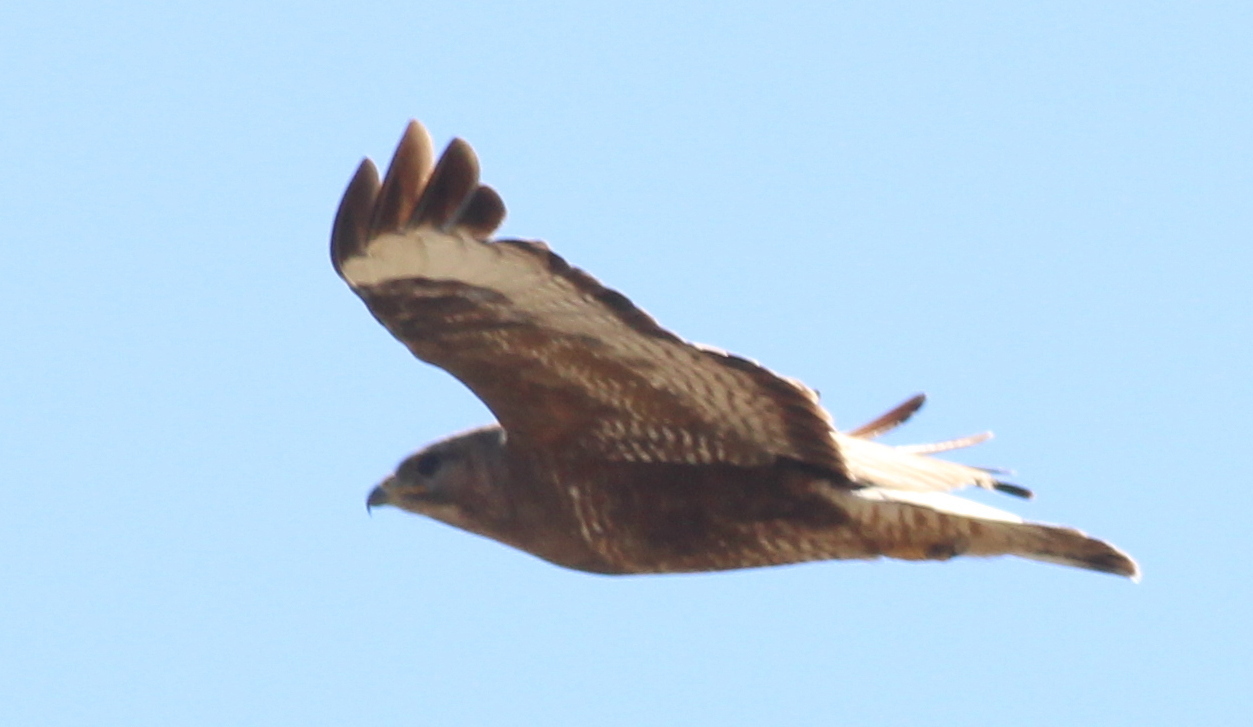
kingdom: Animalia
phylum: Chordata
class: Aves
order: Accipitriformes
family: Accipitridae
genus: Buteo
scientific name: Buteo buteo
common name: Common buzzard
